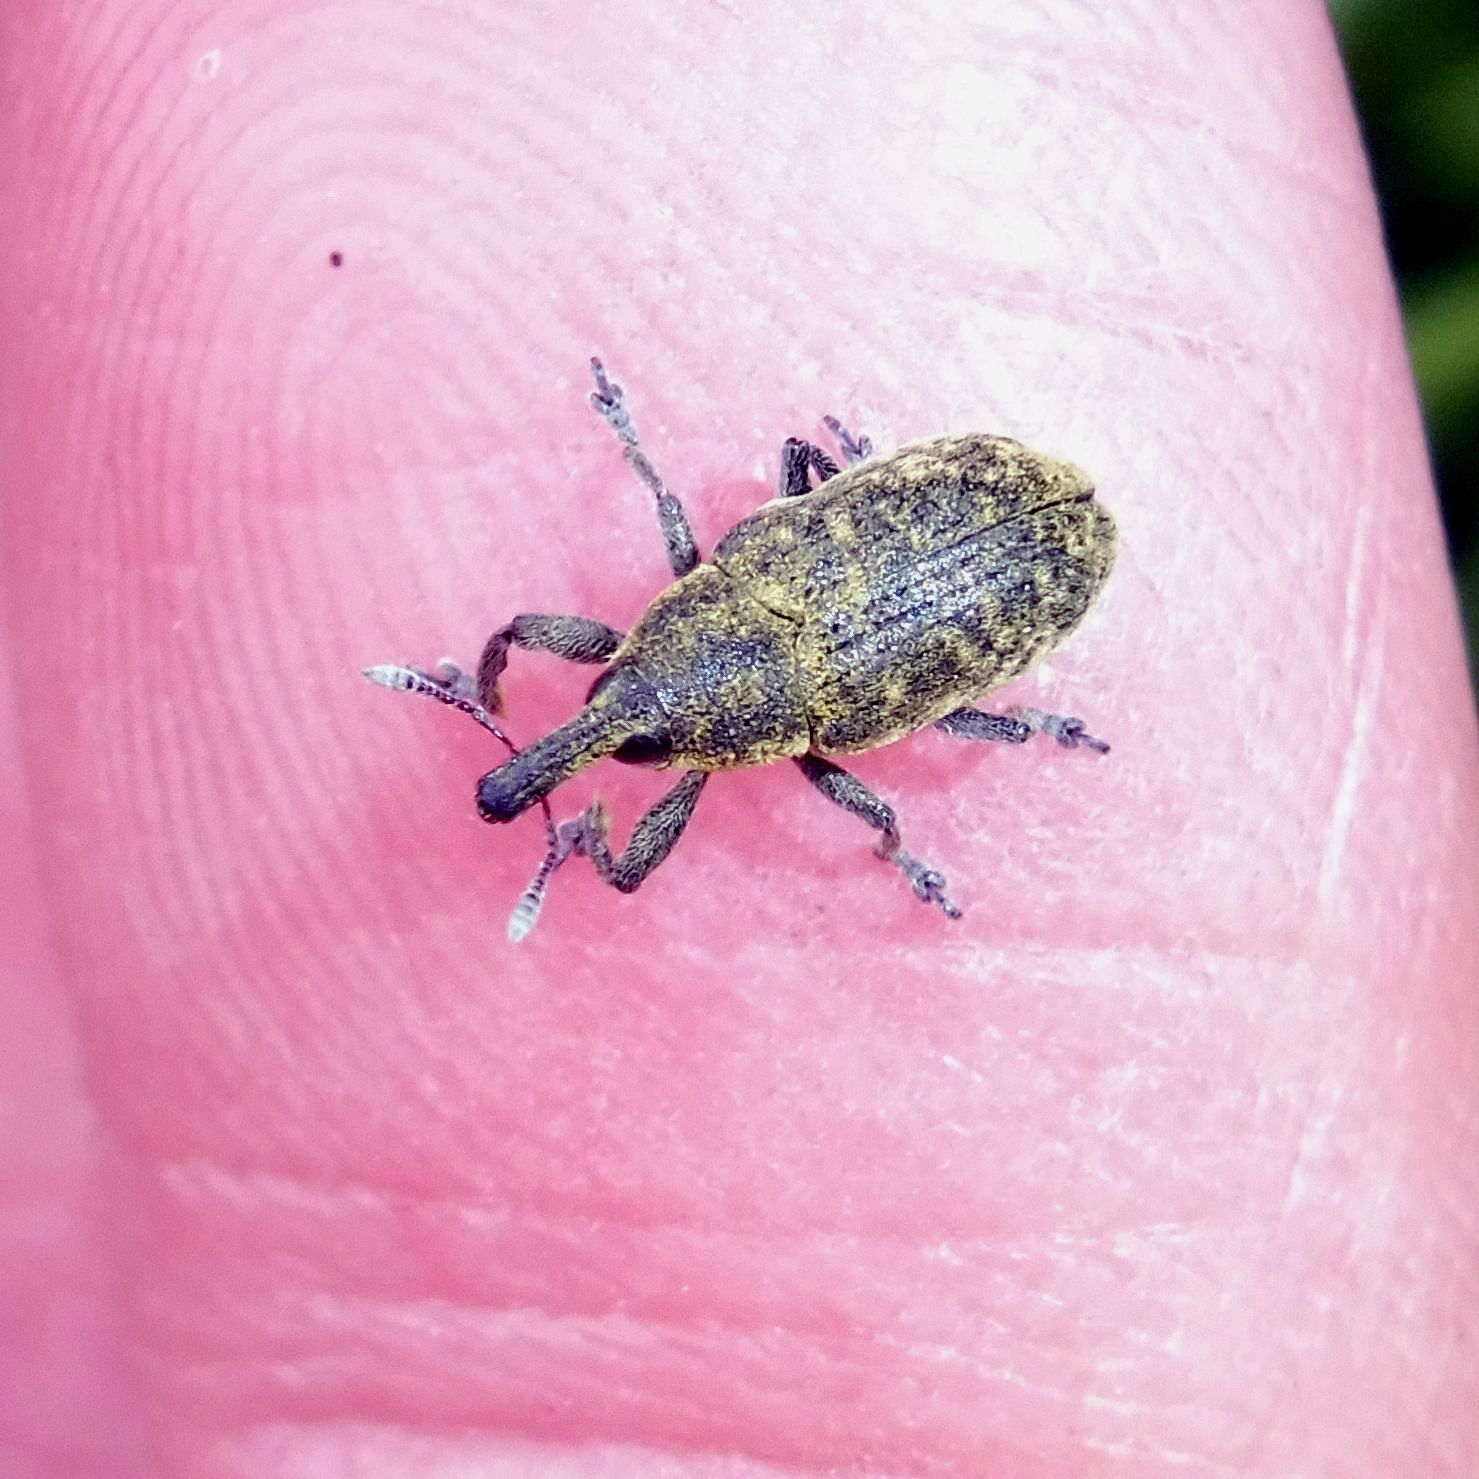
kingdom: Animalia
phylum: Arthropoda
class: Insecta
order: Coleoptera
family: Curculionidae
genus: Larinus
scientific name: Larinus carlinae
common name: Weevil
